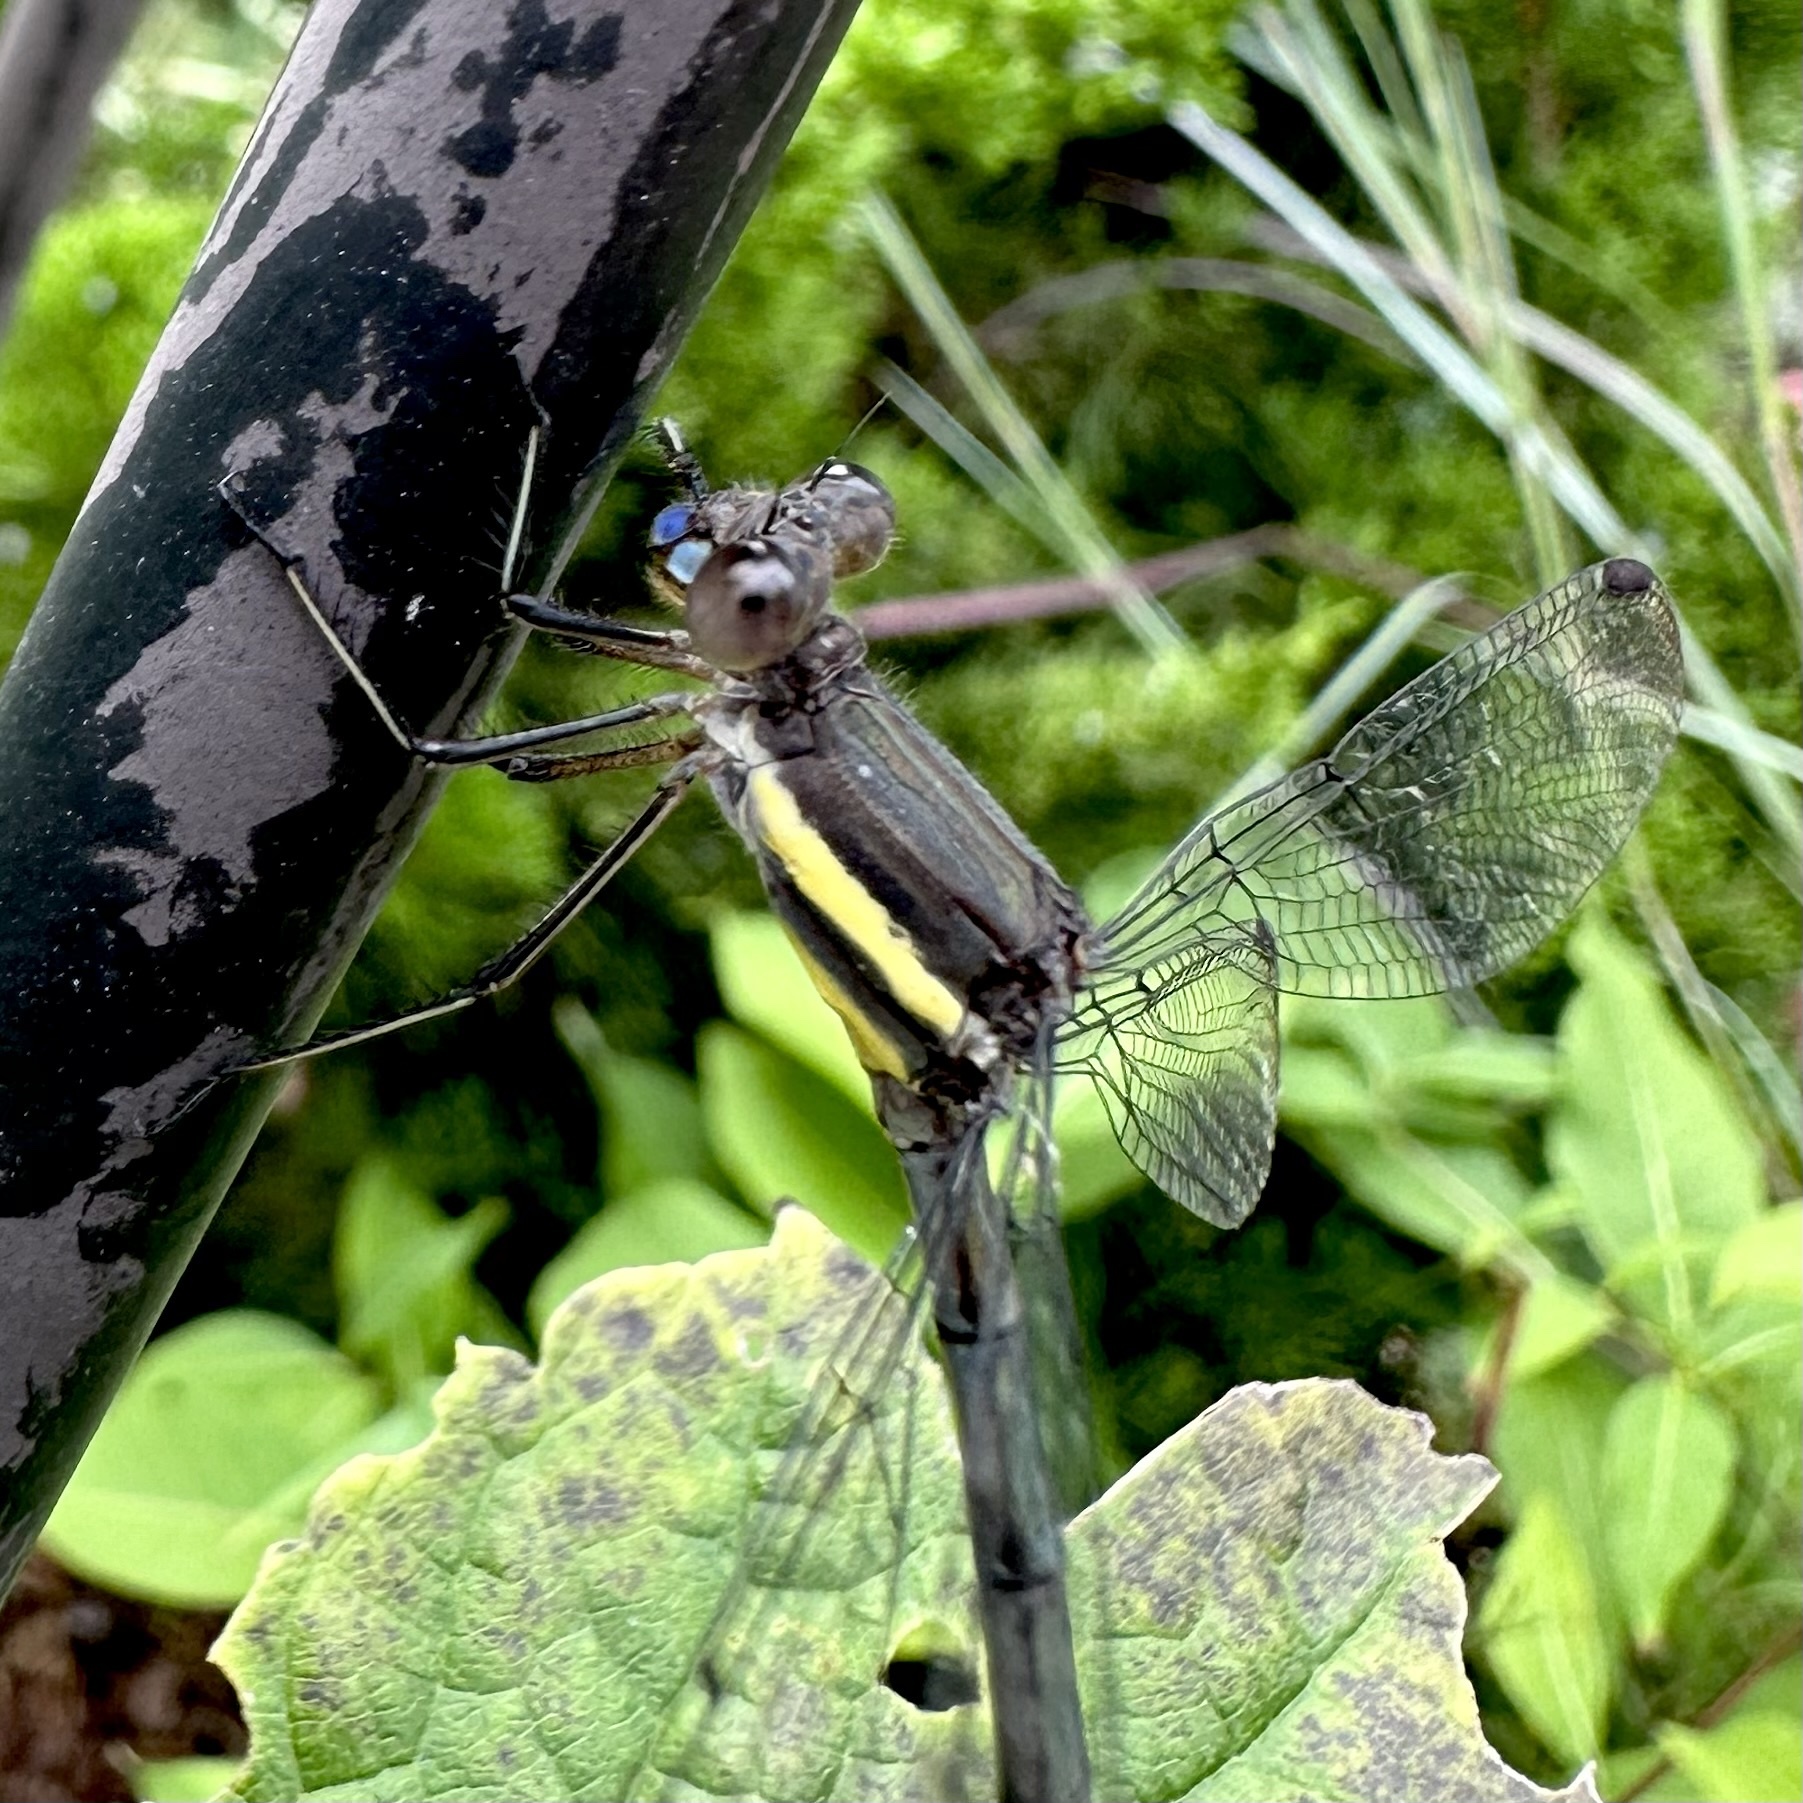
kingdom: Animalia
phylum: Arthropoda
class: Insecta
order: Odonata
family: Lestidae
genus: Archilestes
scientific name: Archilestes grandis
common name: Great spreadwing
